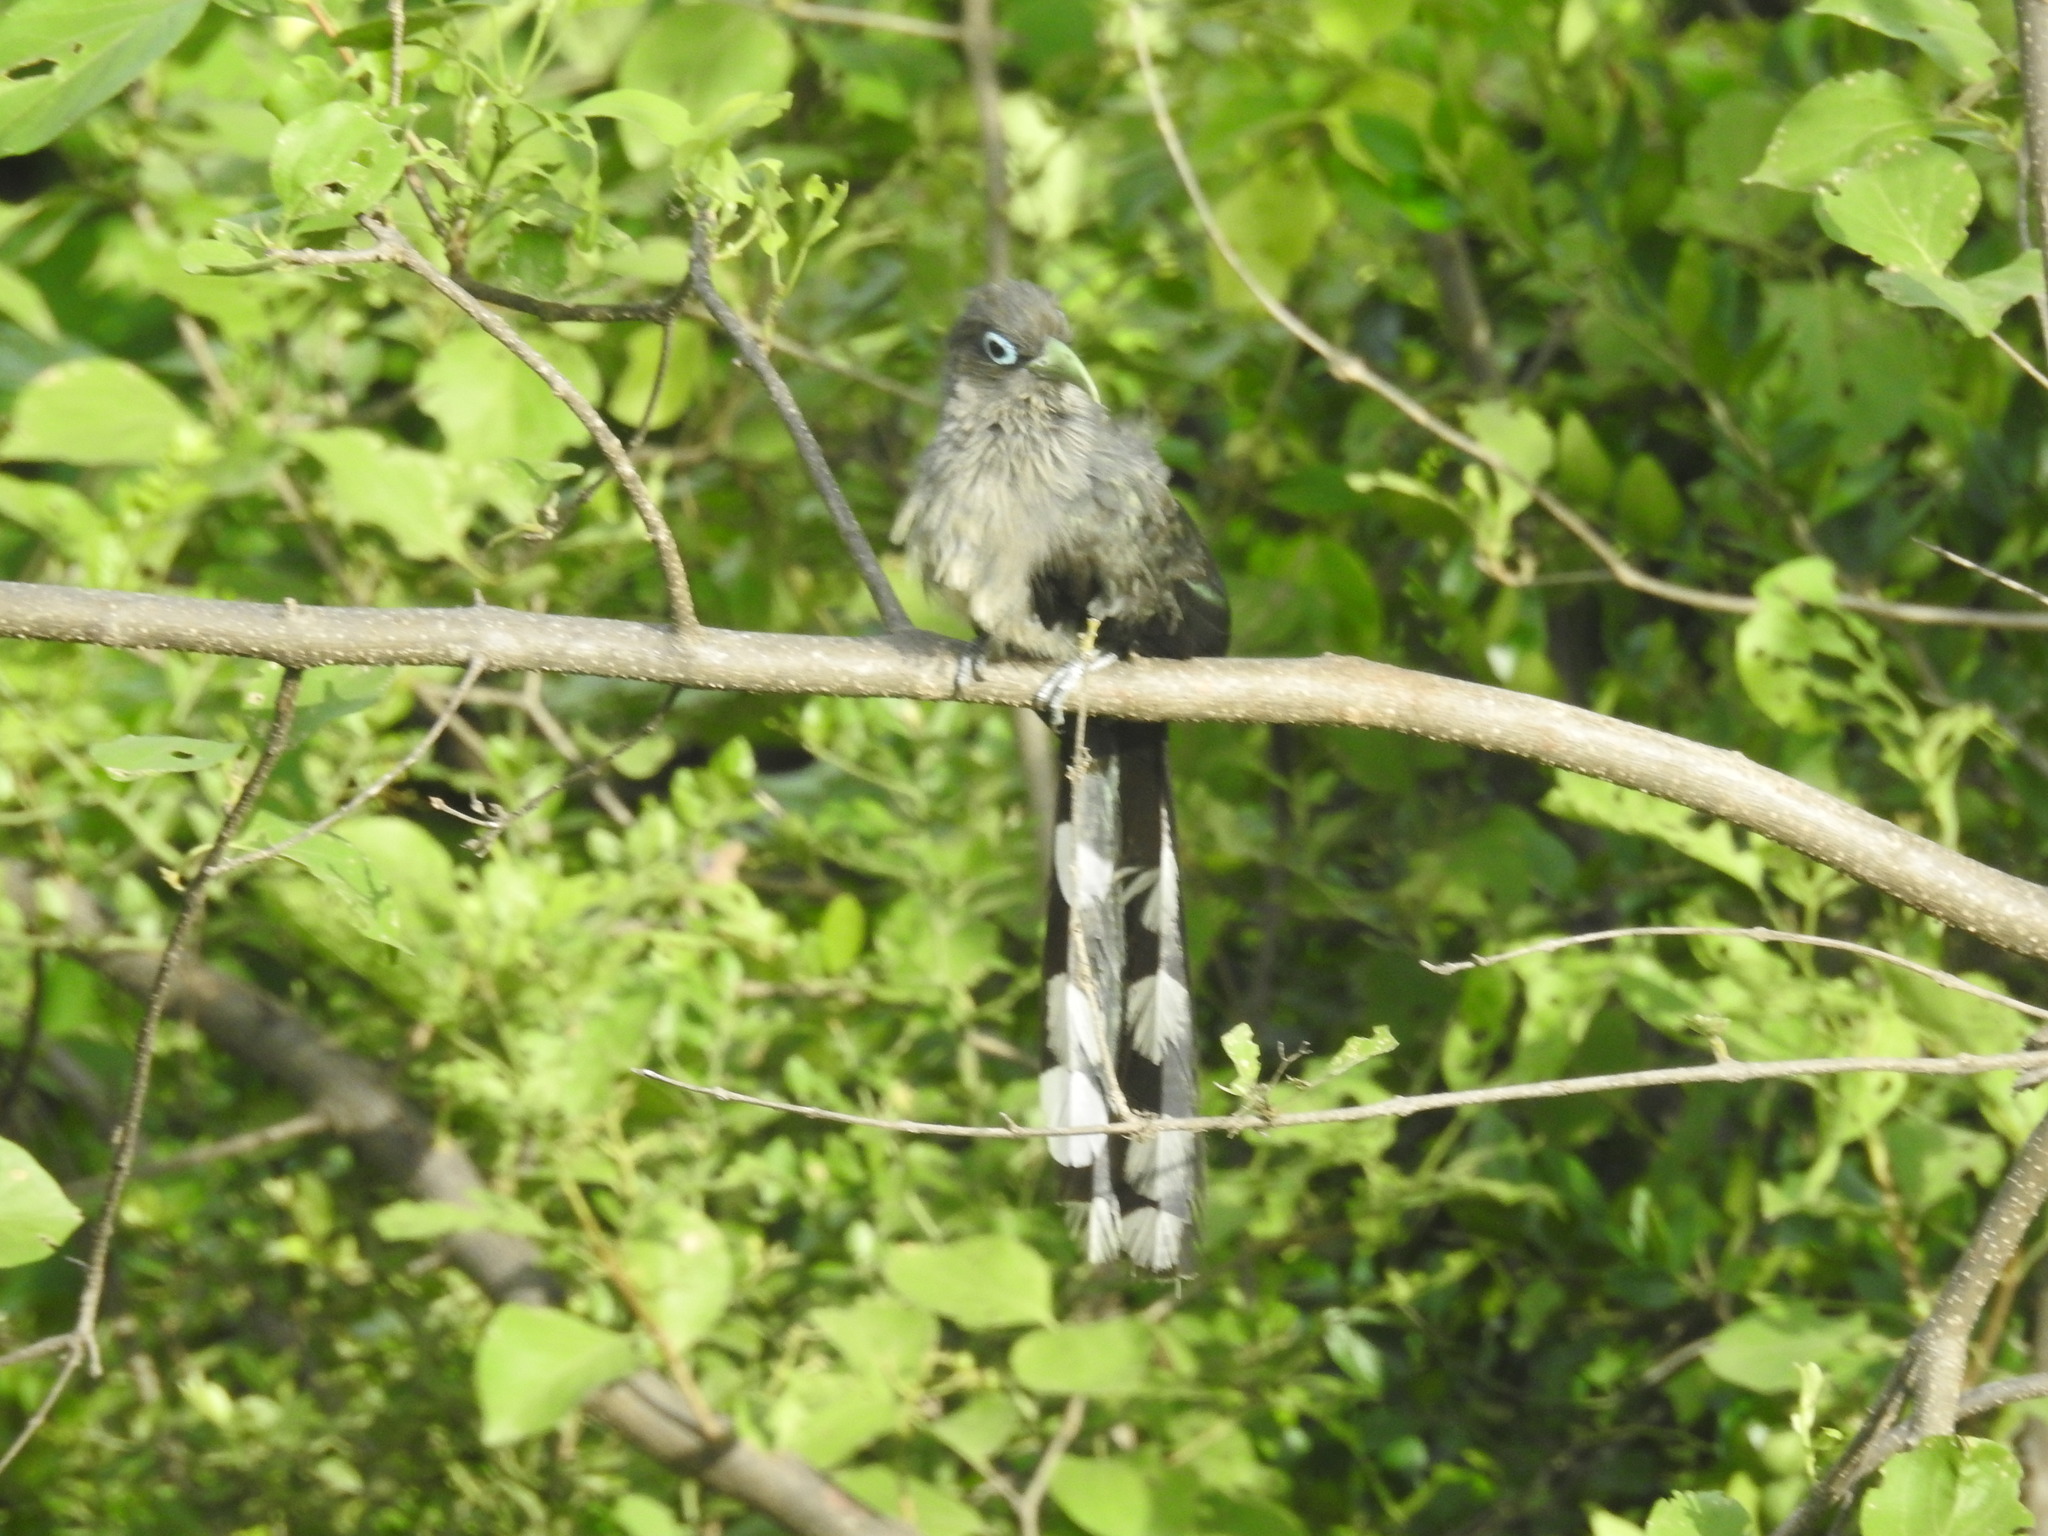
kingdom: Animalia
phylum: Chordata
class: Aves
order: Cuculiformes
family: Cuculidae
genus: Rhopodytes
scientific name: Rhopodytes viridirostris
